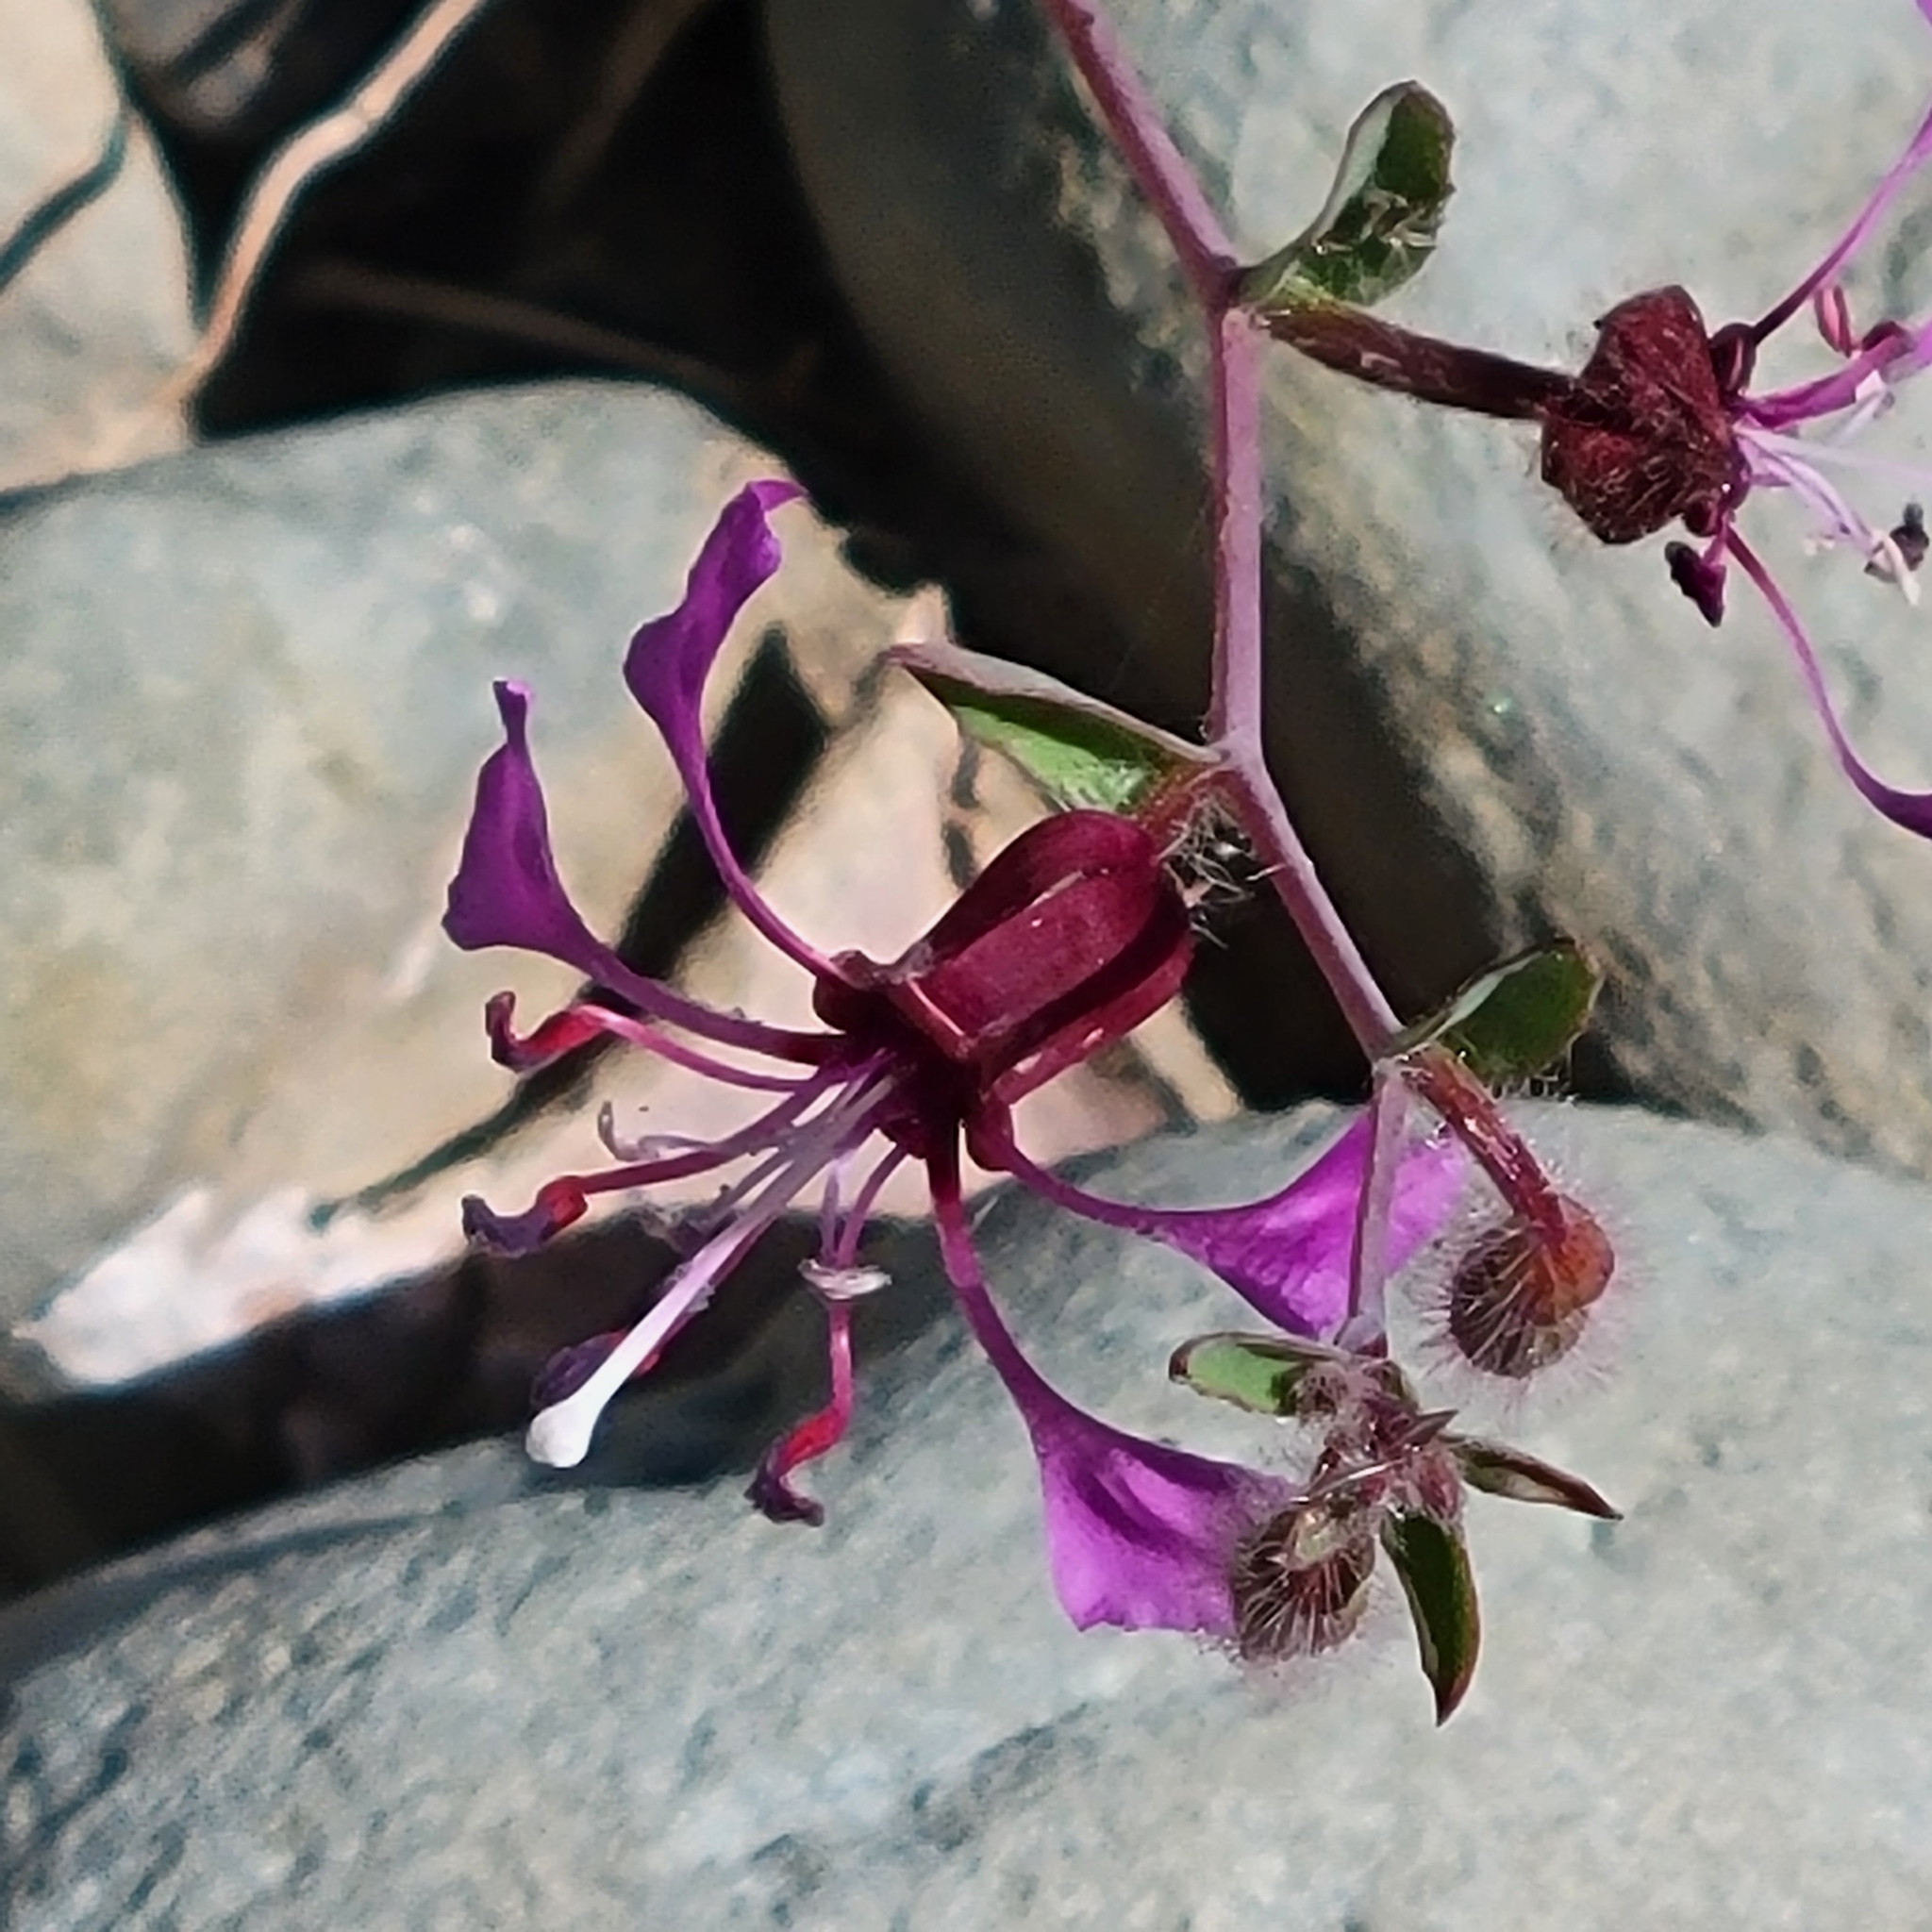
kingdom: Plantae
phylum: Tracheophyta
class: Magnoliopsida
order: Myrtales
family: Onagraceae
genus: Clarkia
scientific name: Clarkia unguiculata
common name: Clarkia
